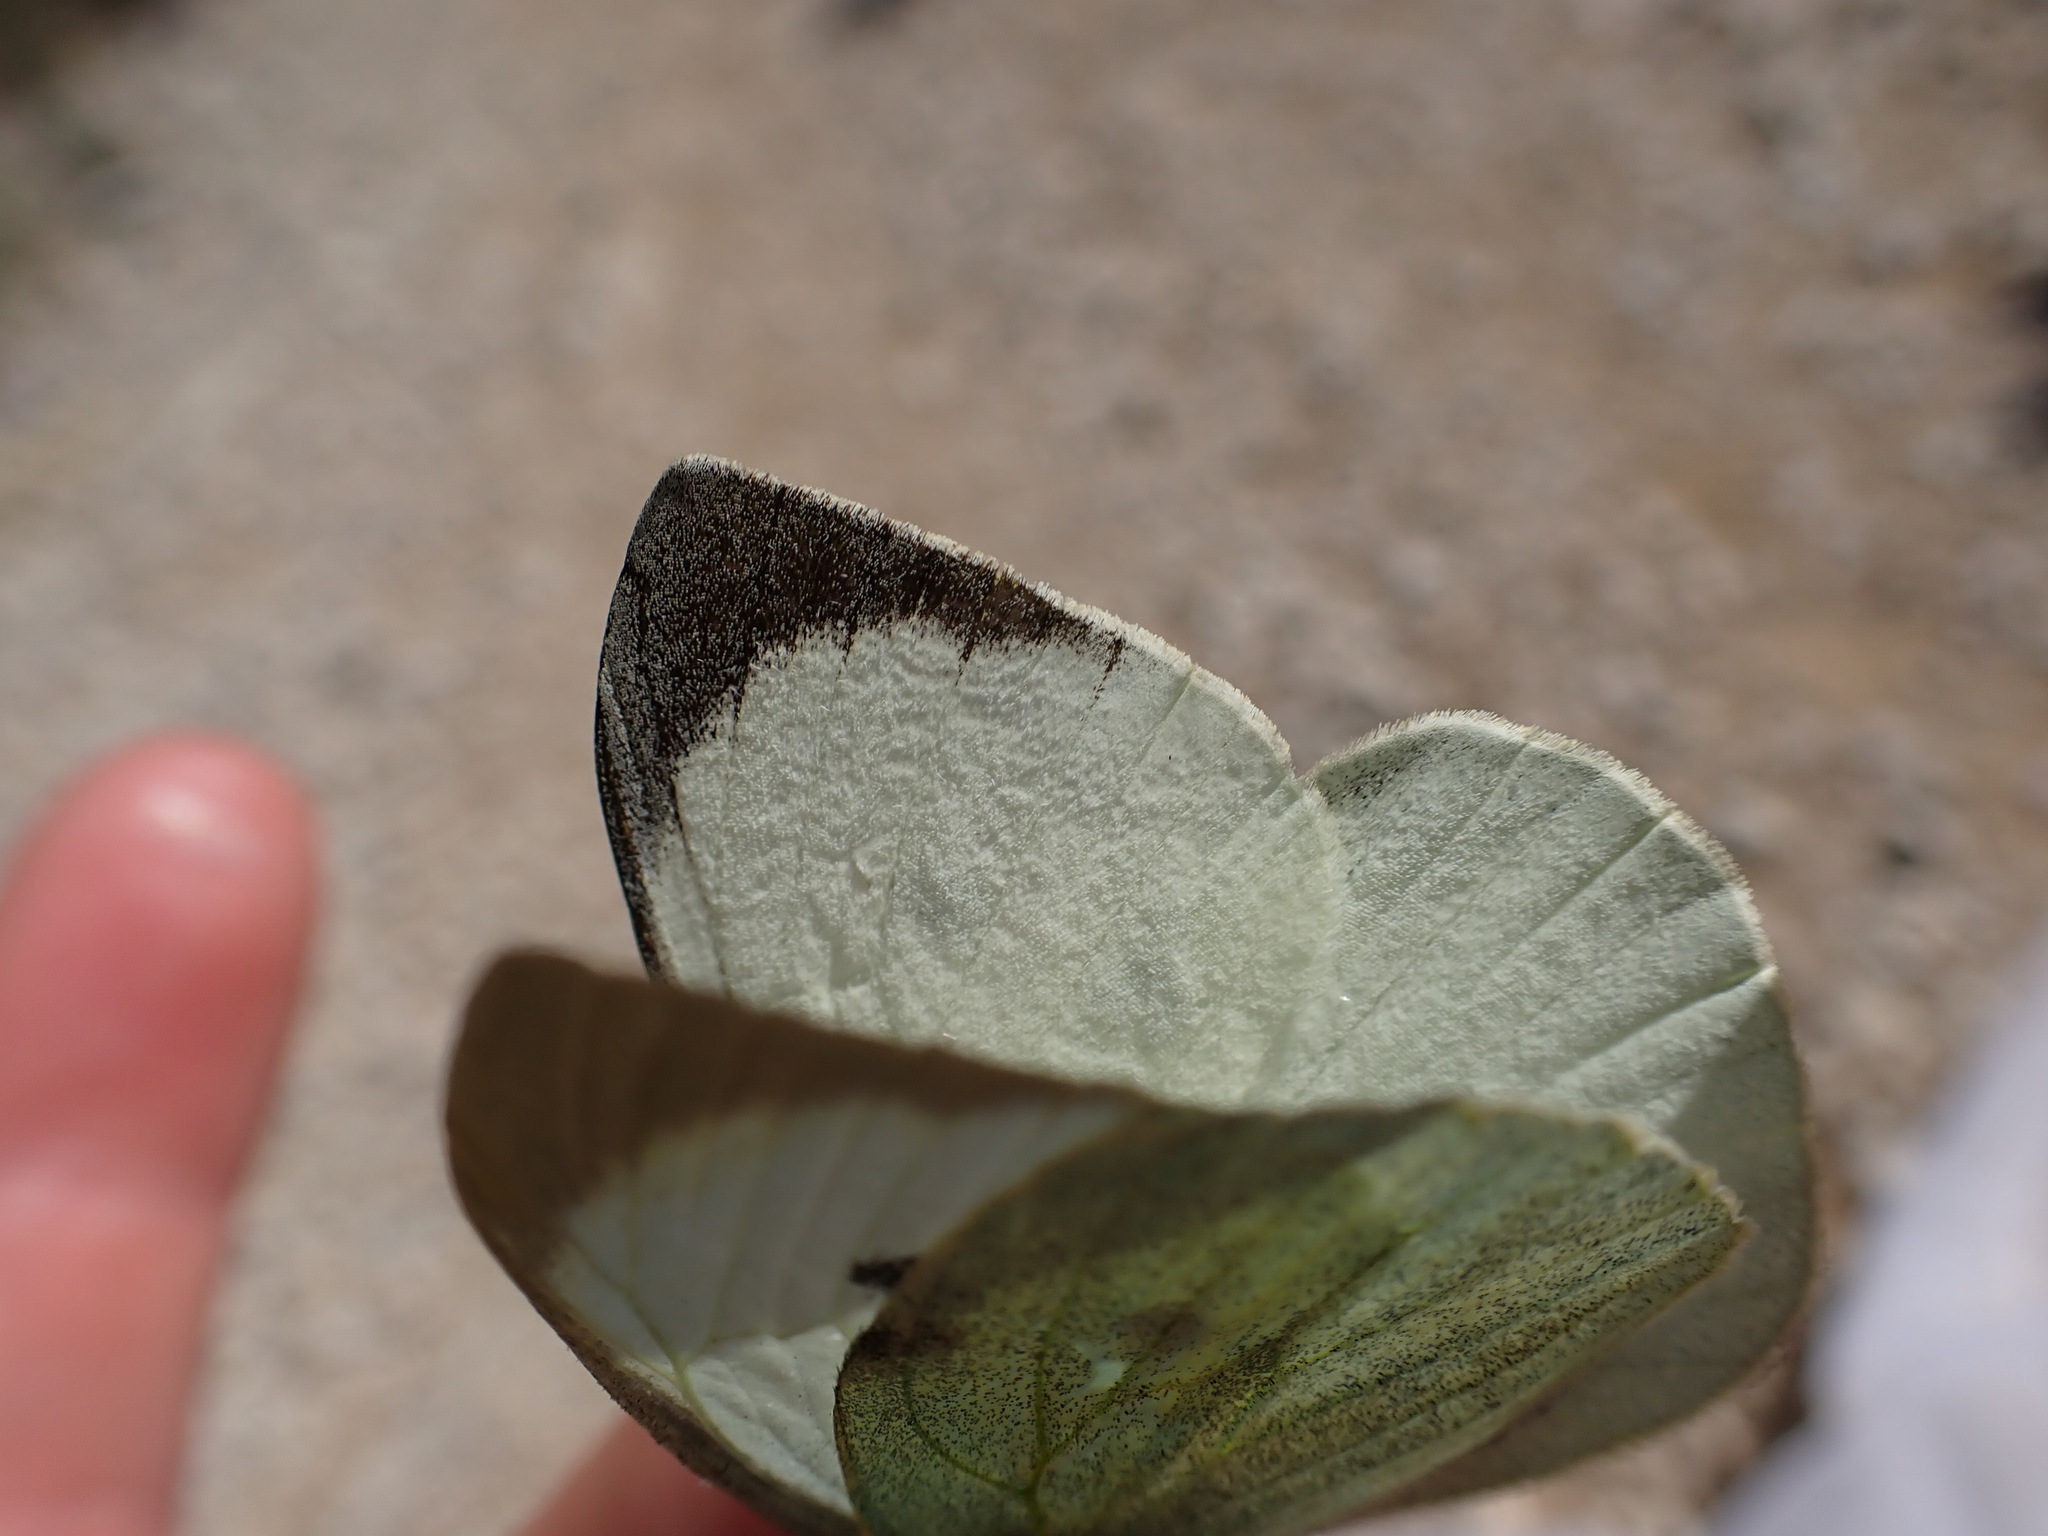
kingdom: Animalia
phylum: Arthropoda
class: Insecta
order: Lepidoptera
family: Pieridae
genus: Pieris
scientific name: Pieris brassicae
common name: Large white
